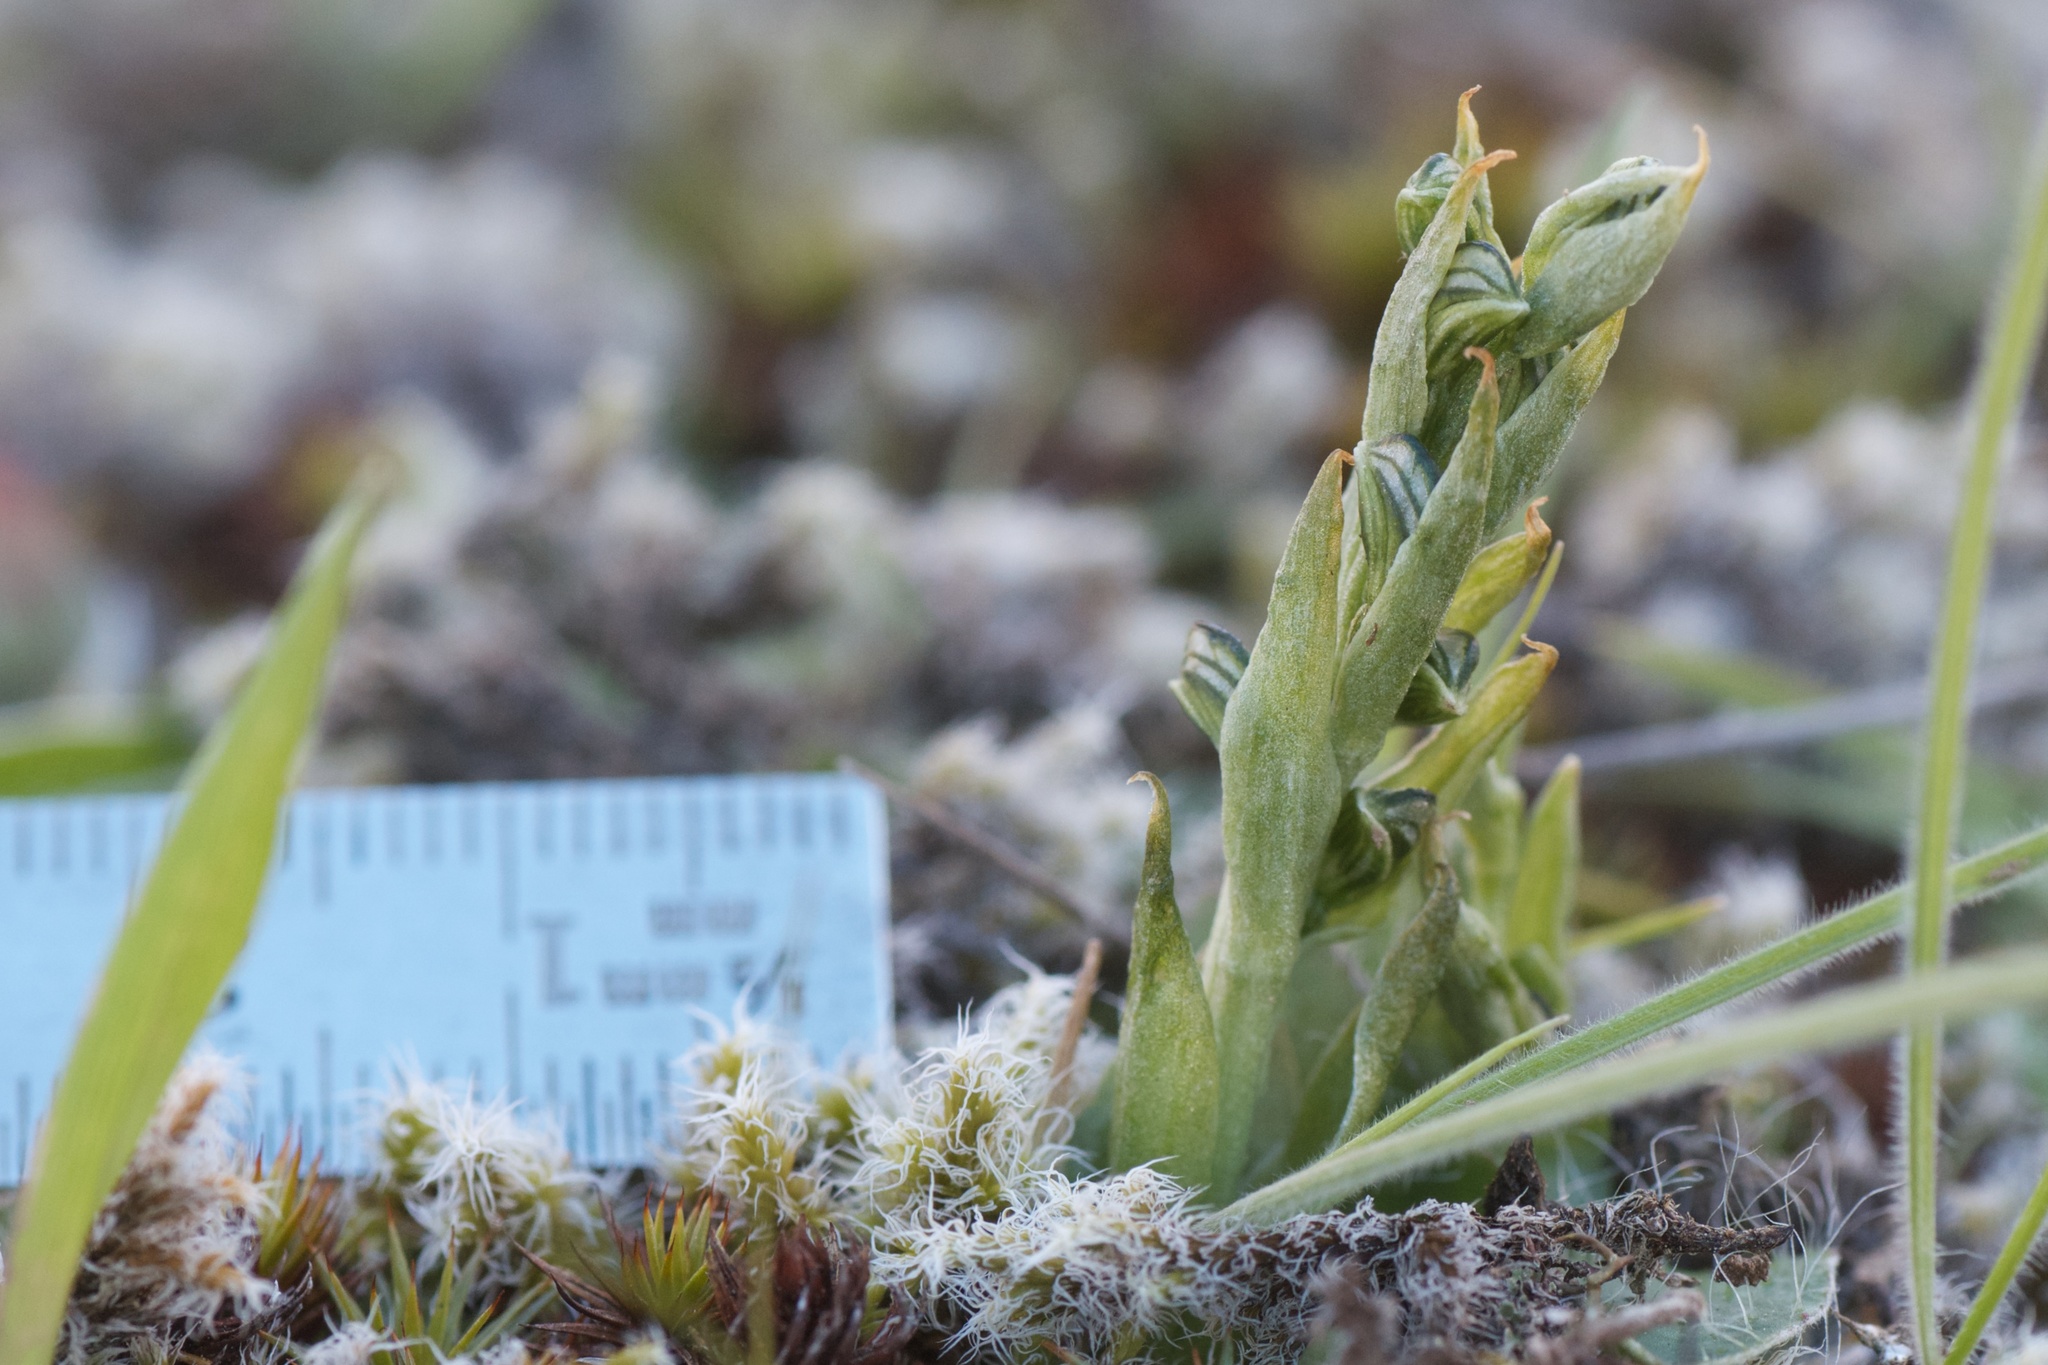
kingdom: Plantae
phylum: Tracheophyta
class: Liliopsida
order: Asparagales
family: Orchidaceae
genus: Pterostylis
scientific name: Pterostylis tristis
